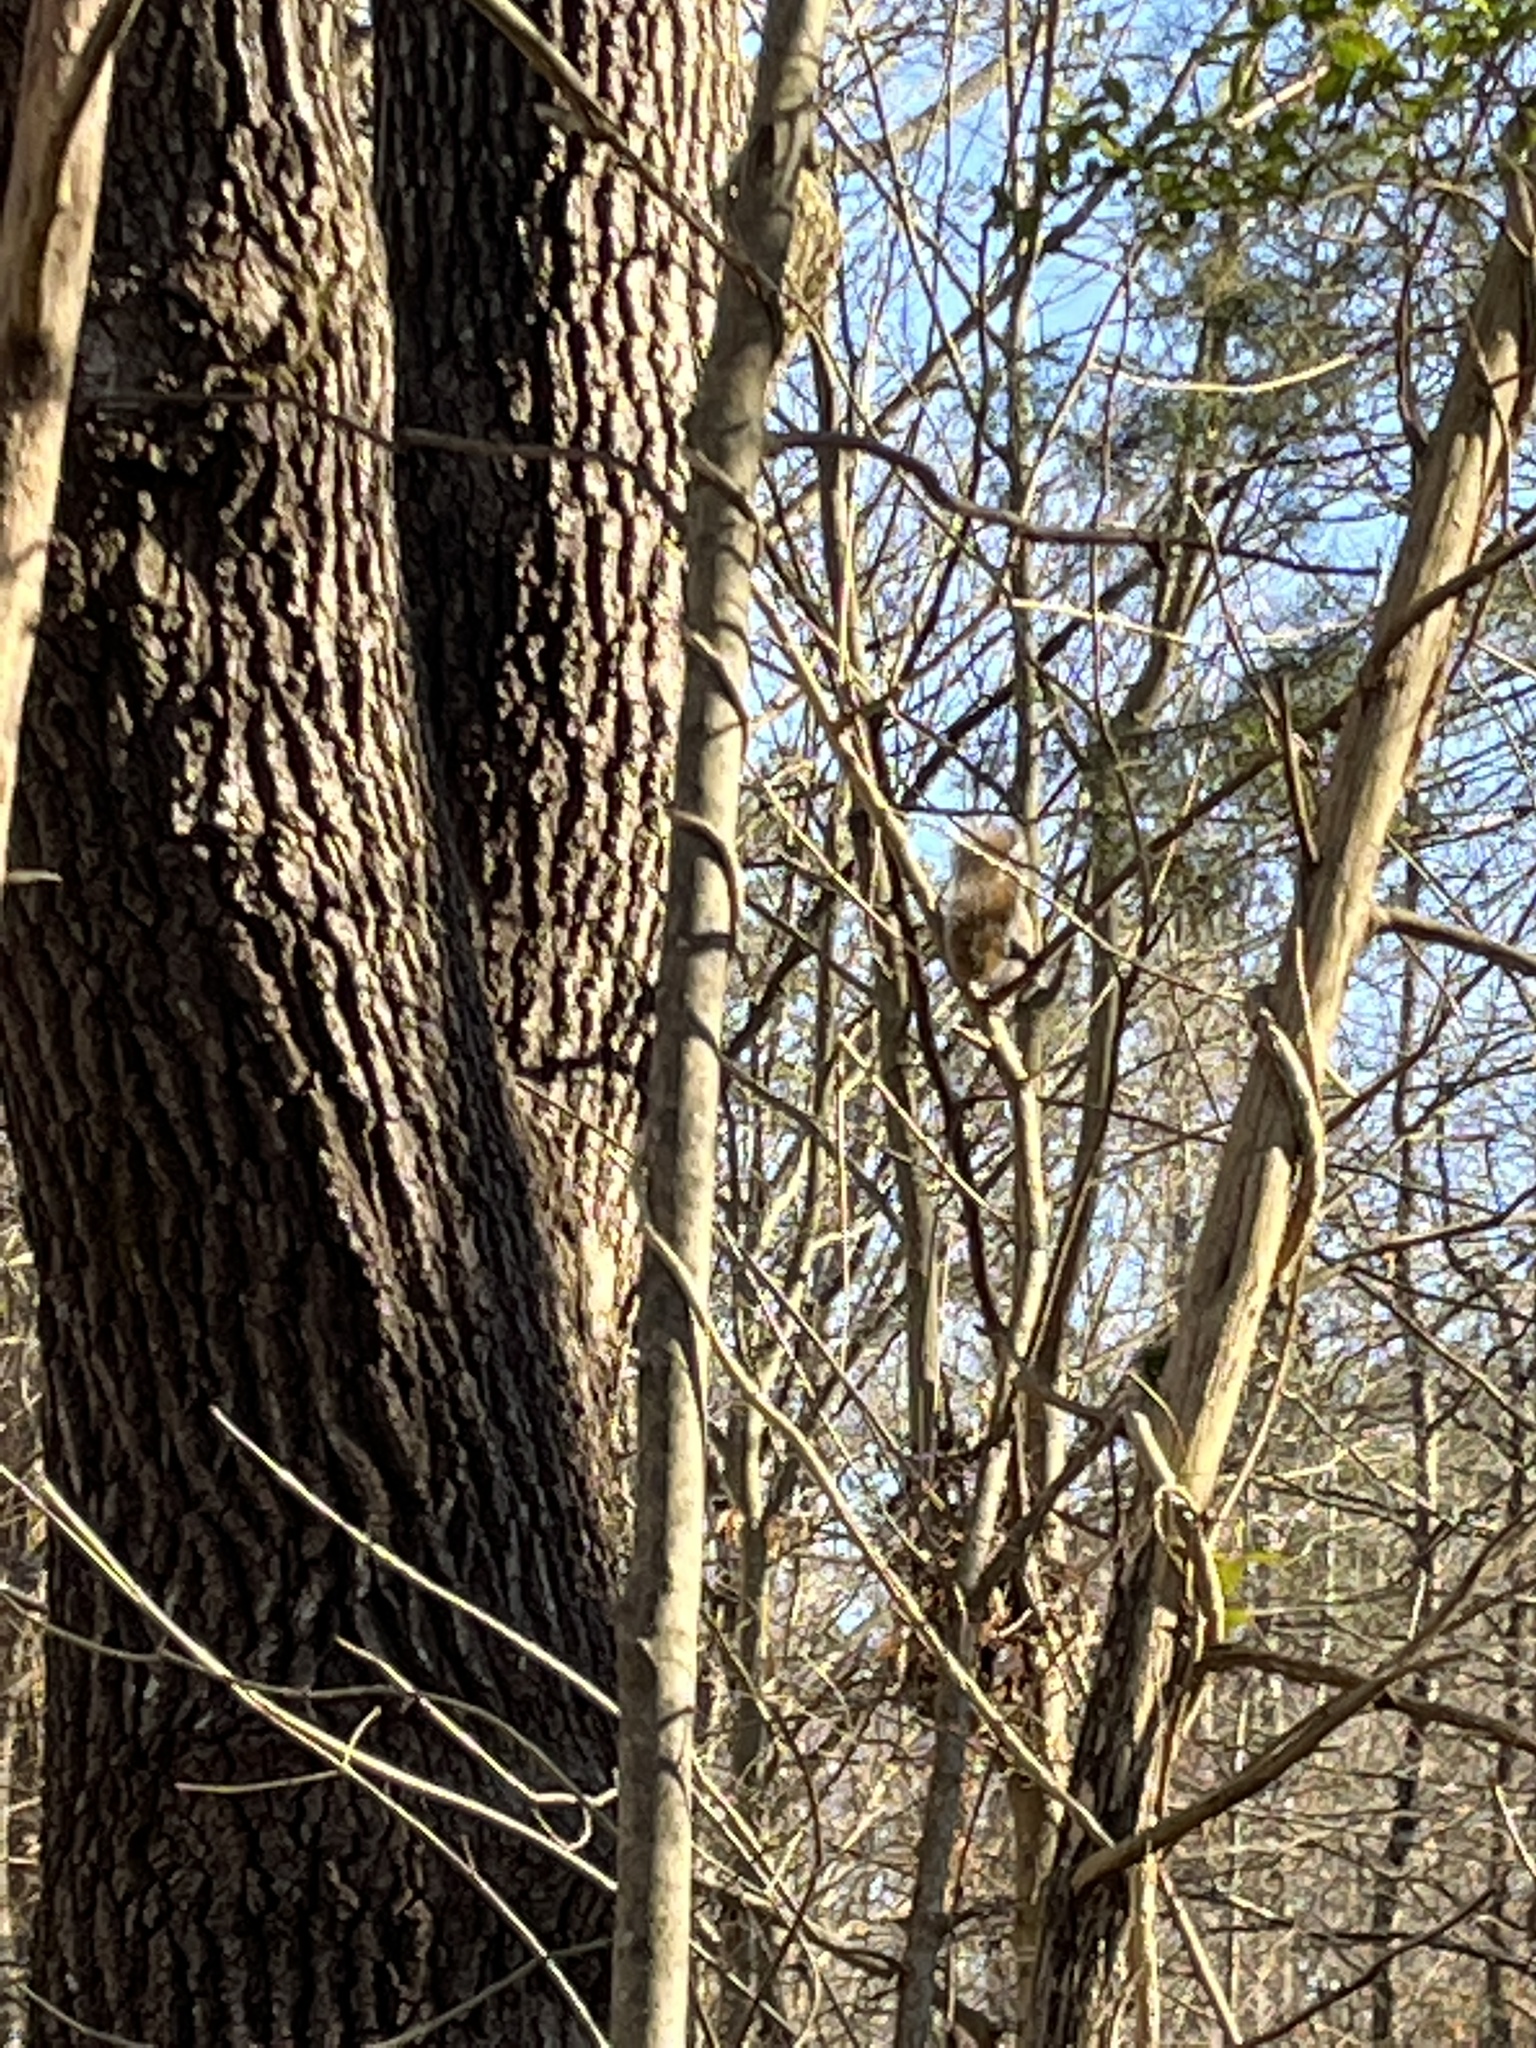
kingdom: Animalia
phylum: Chordata
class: Mammalia
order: Rodentia
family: Sciuridae
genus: Sciurus
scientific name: Sciurus carolinensis
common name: Eastern gray squirrel
